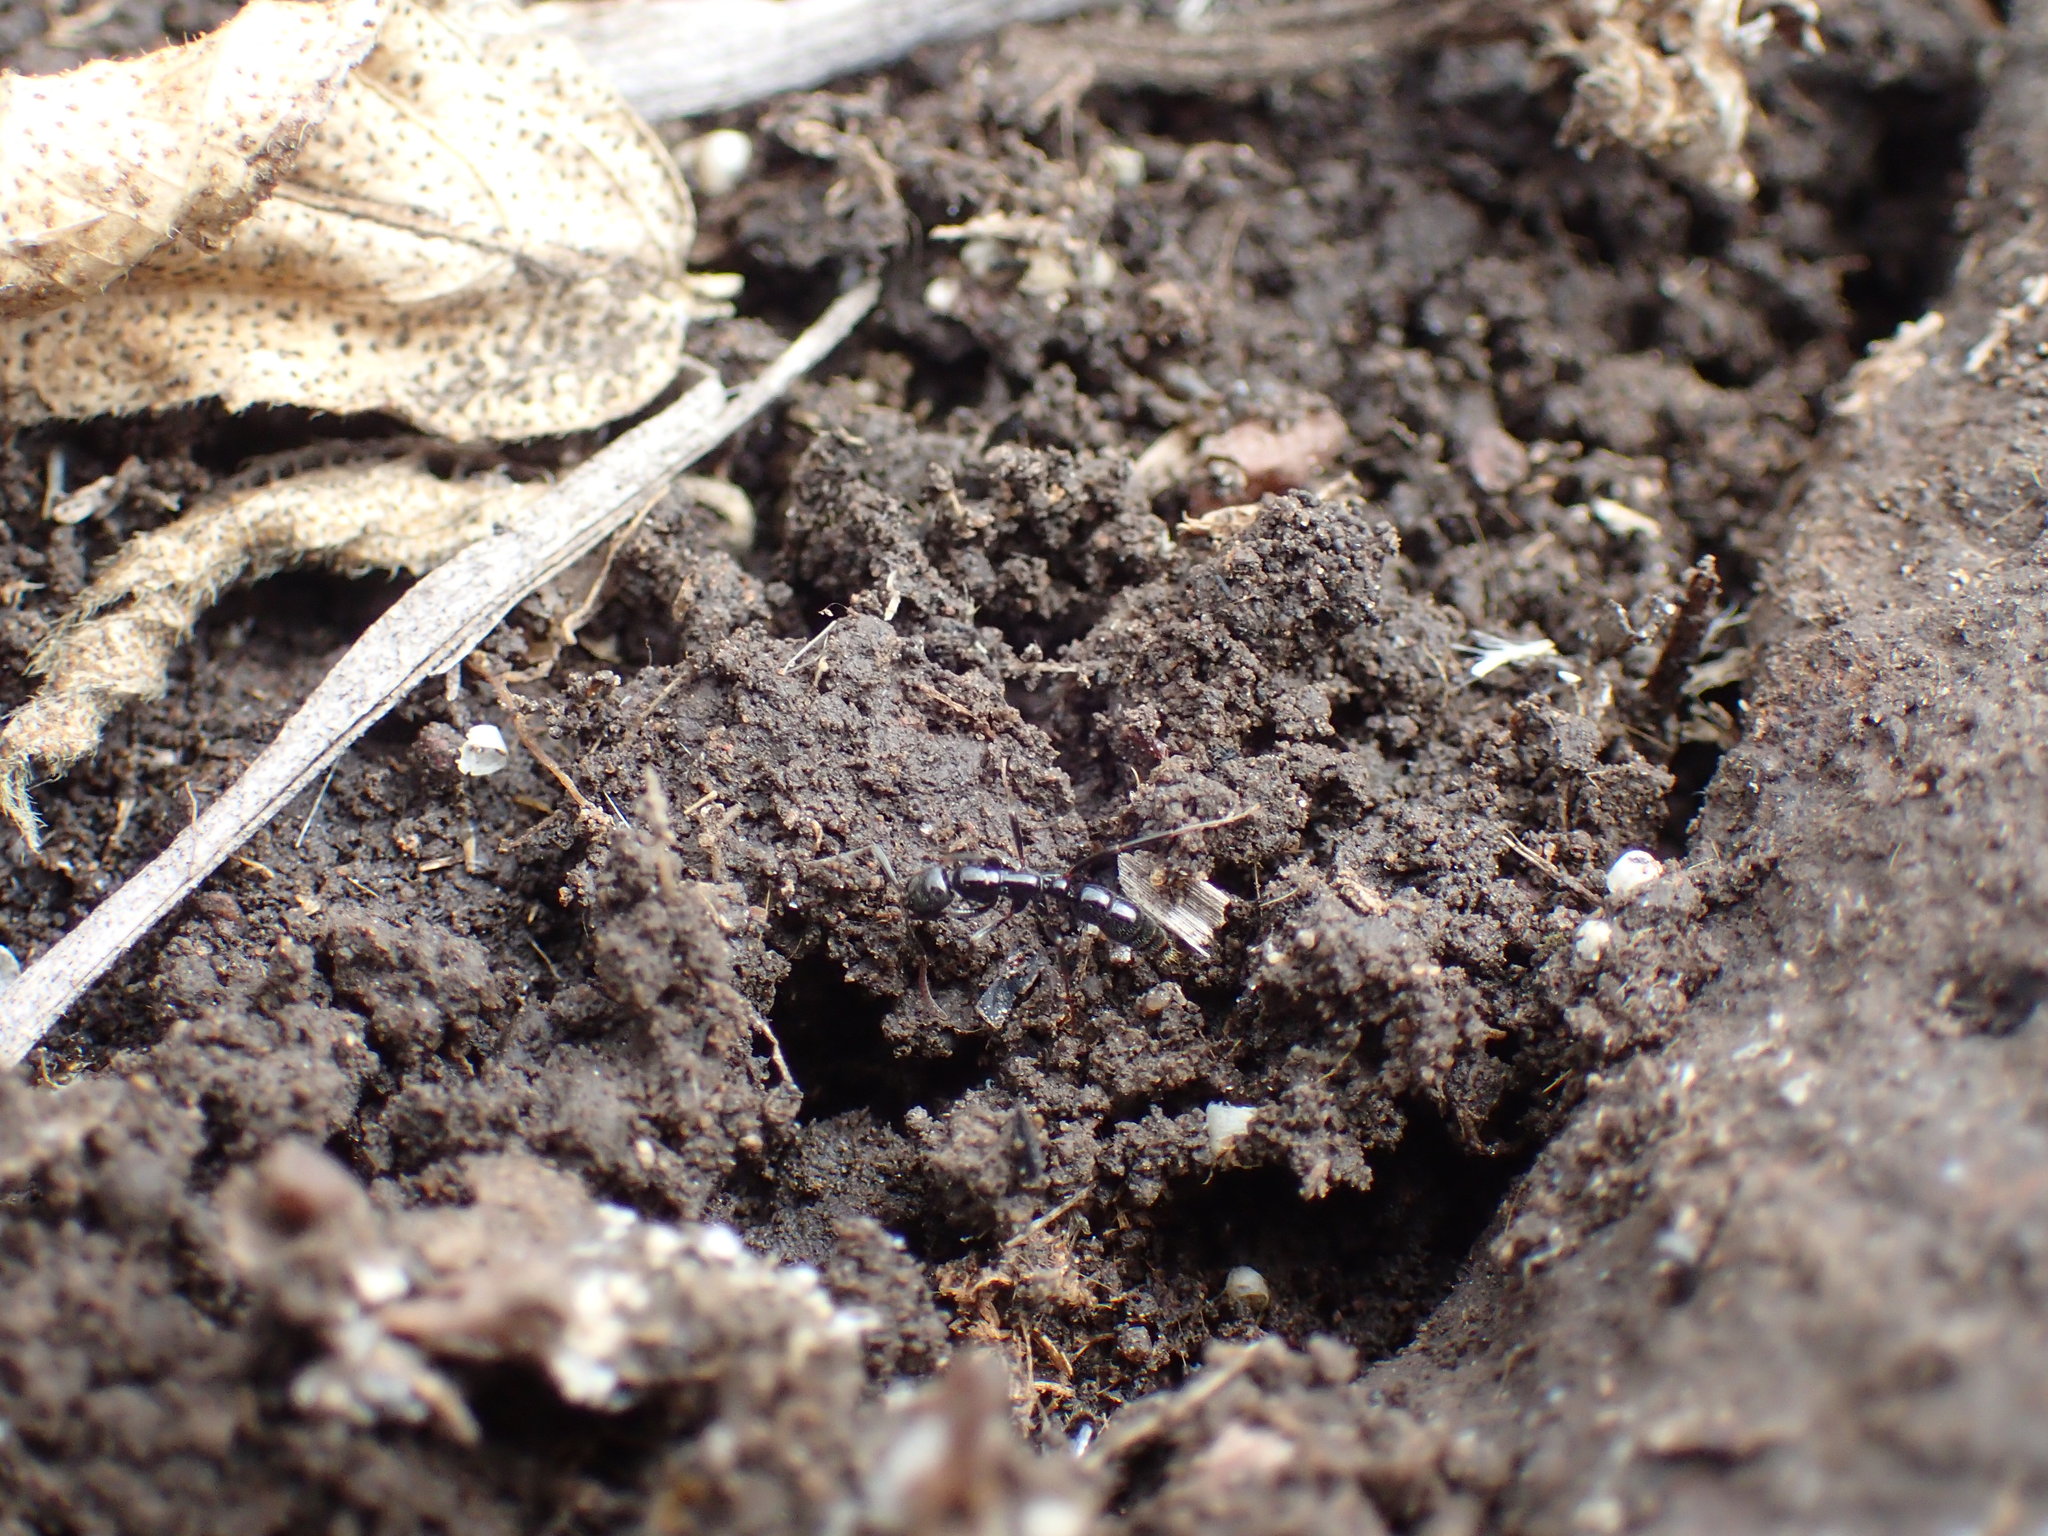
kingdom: Animalia
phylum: Arthropoda
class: Insecta
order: Hymenoptera
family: Formicidae
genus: Leptogenys
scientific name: Leptogenys intermedia
